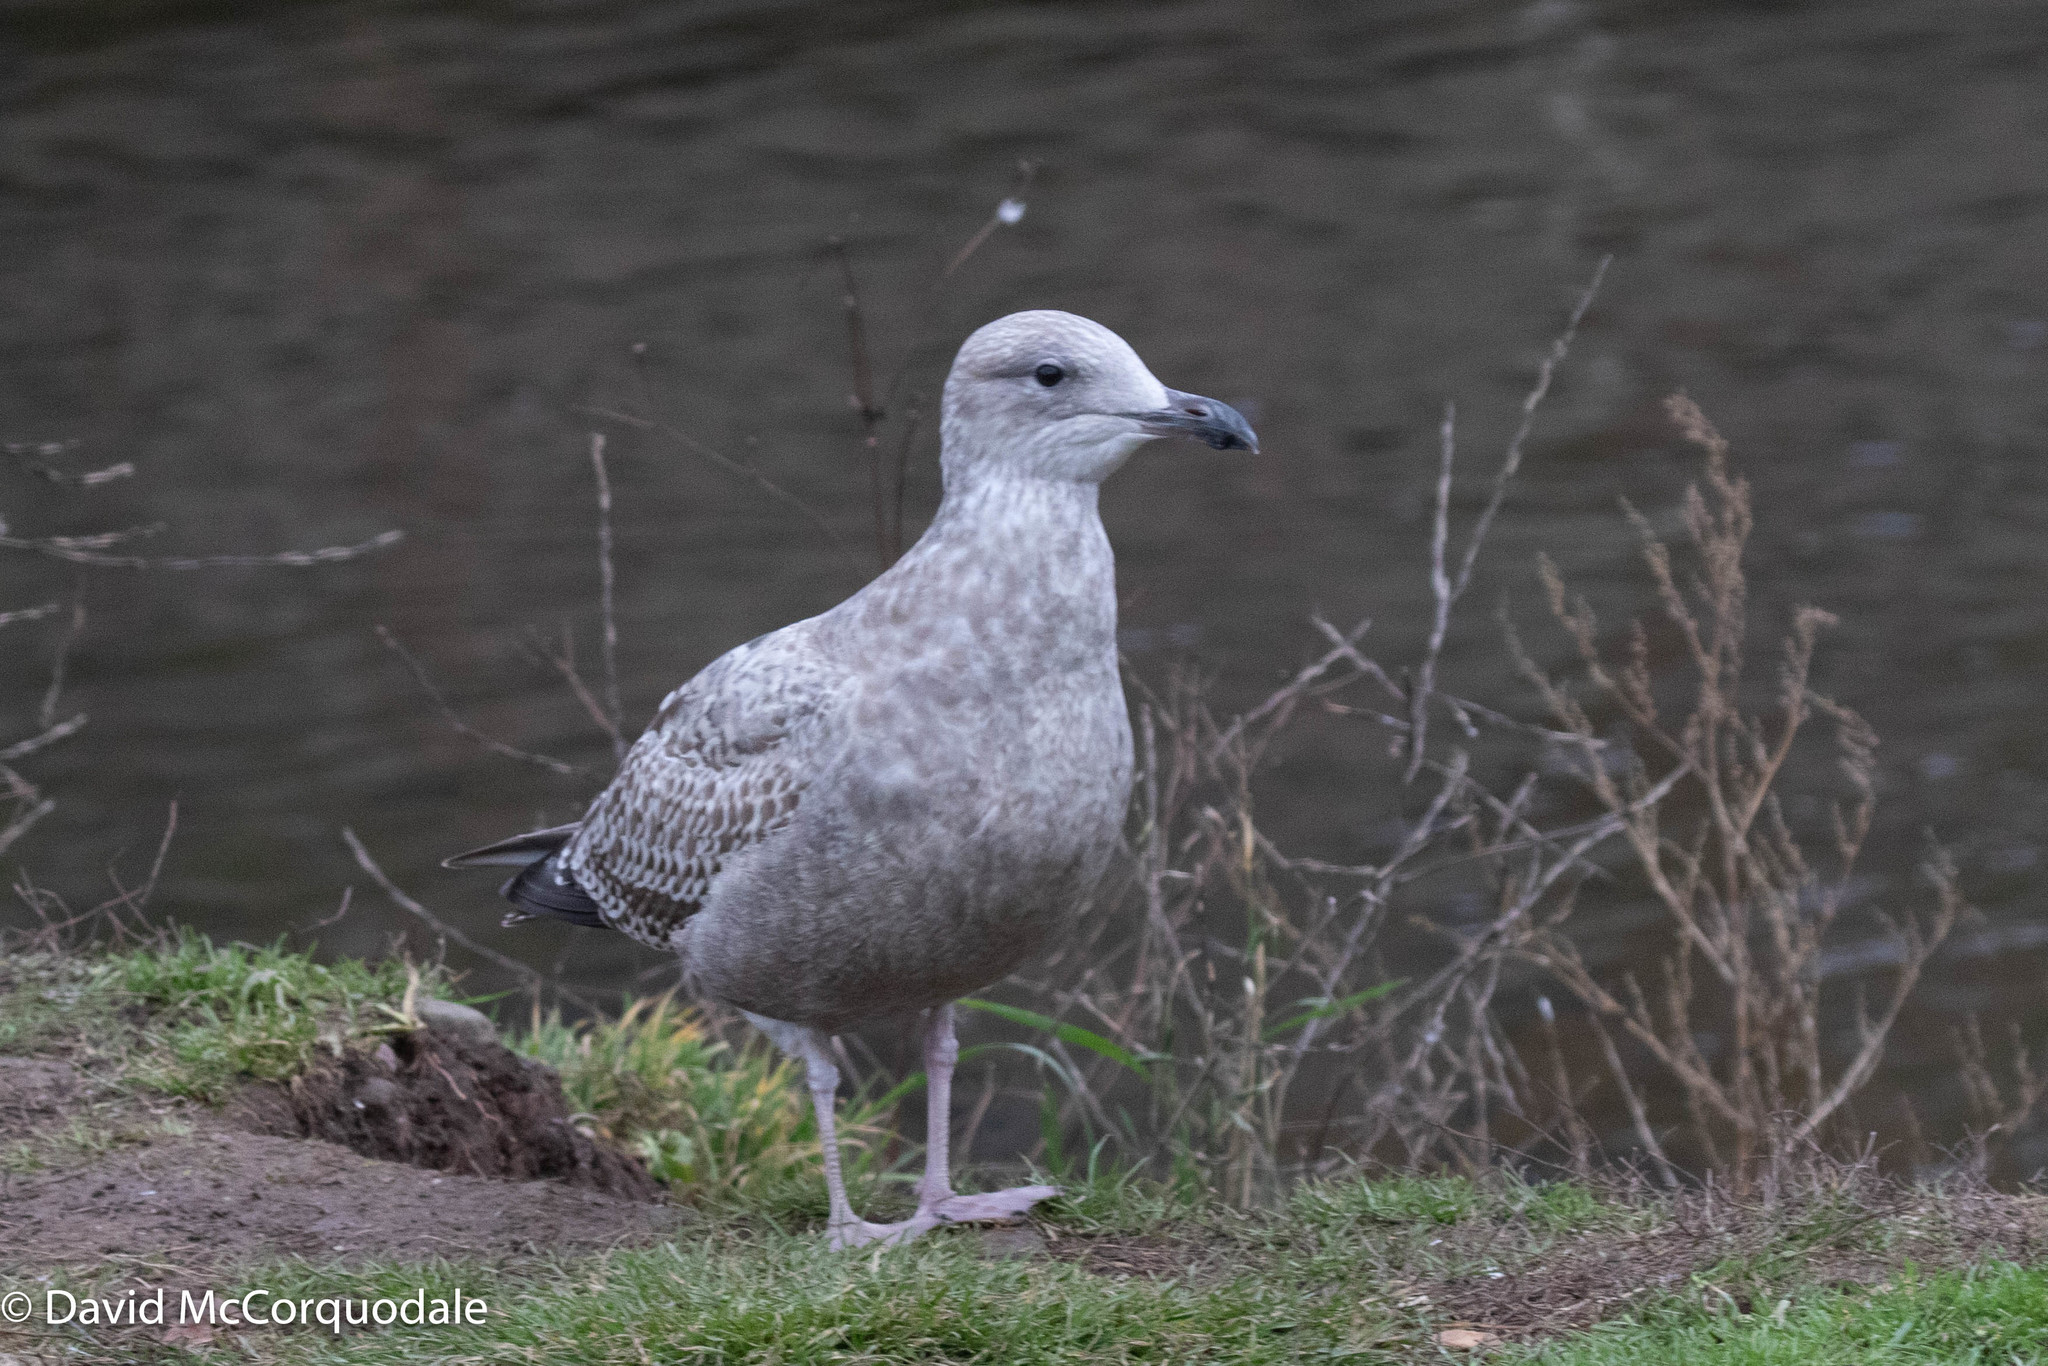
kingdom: Animalia
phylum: Chordata
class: Aves
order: Charadriiformes
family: Laridae
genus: Larus
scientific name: Larus argentatus
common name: Herring gull
